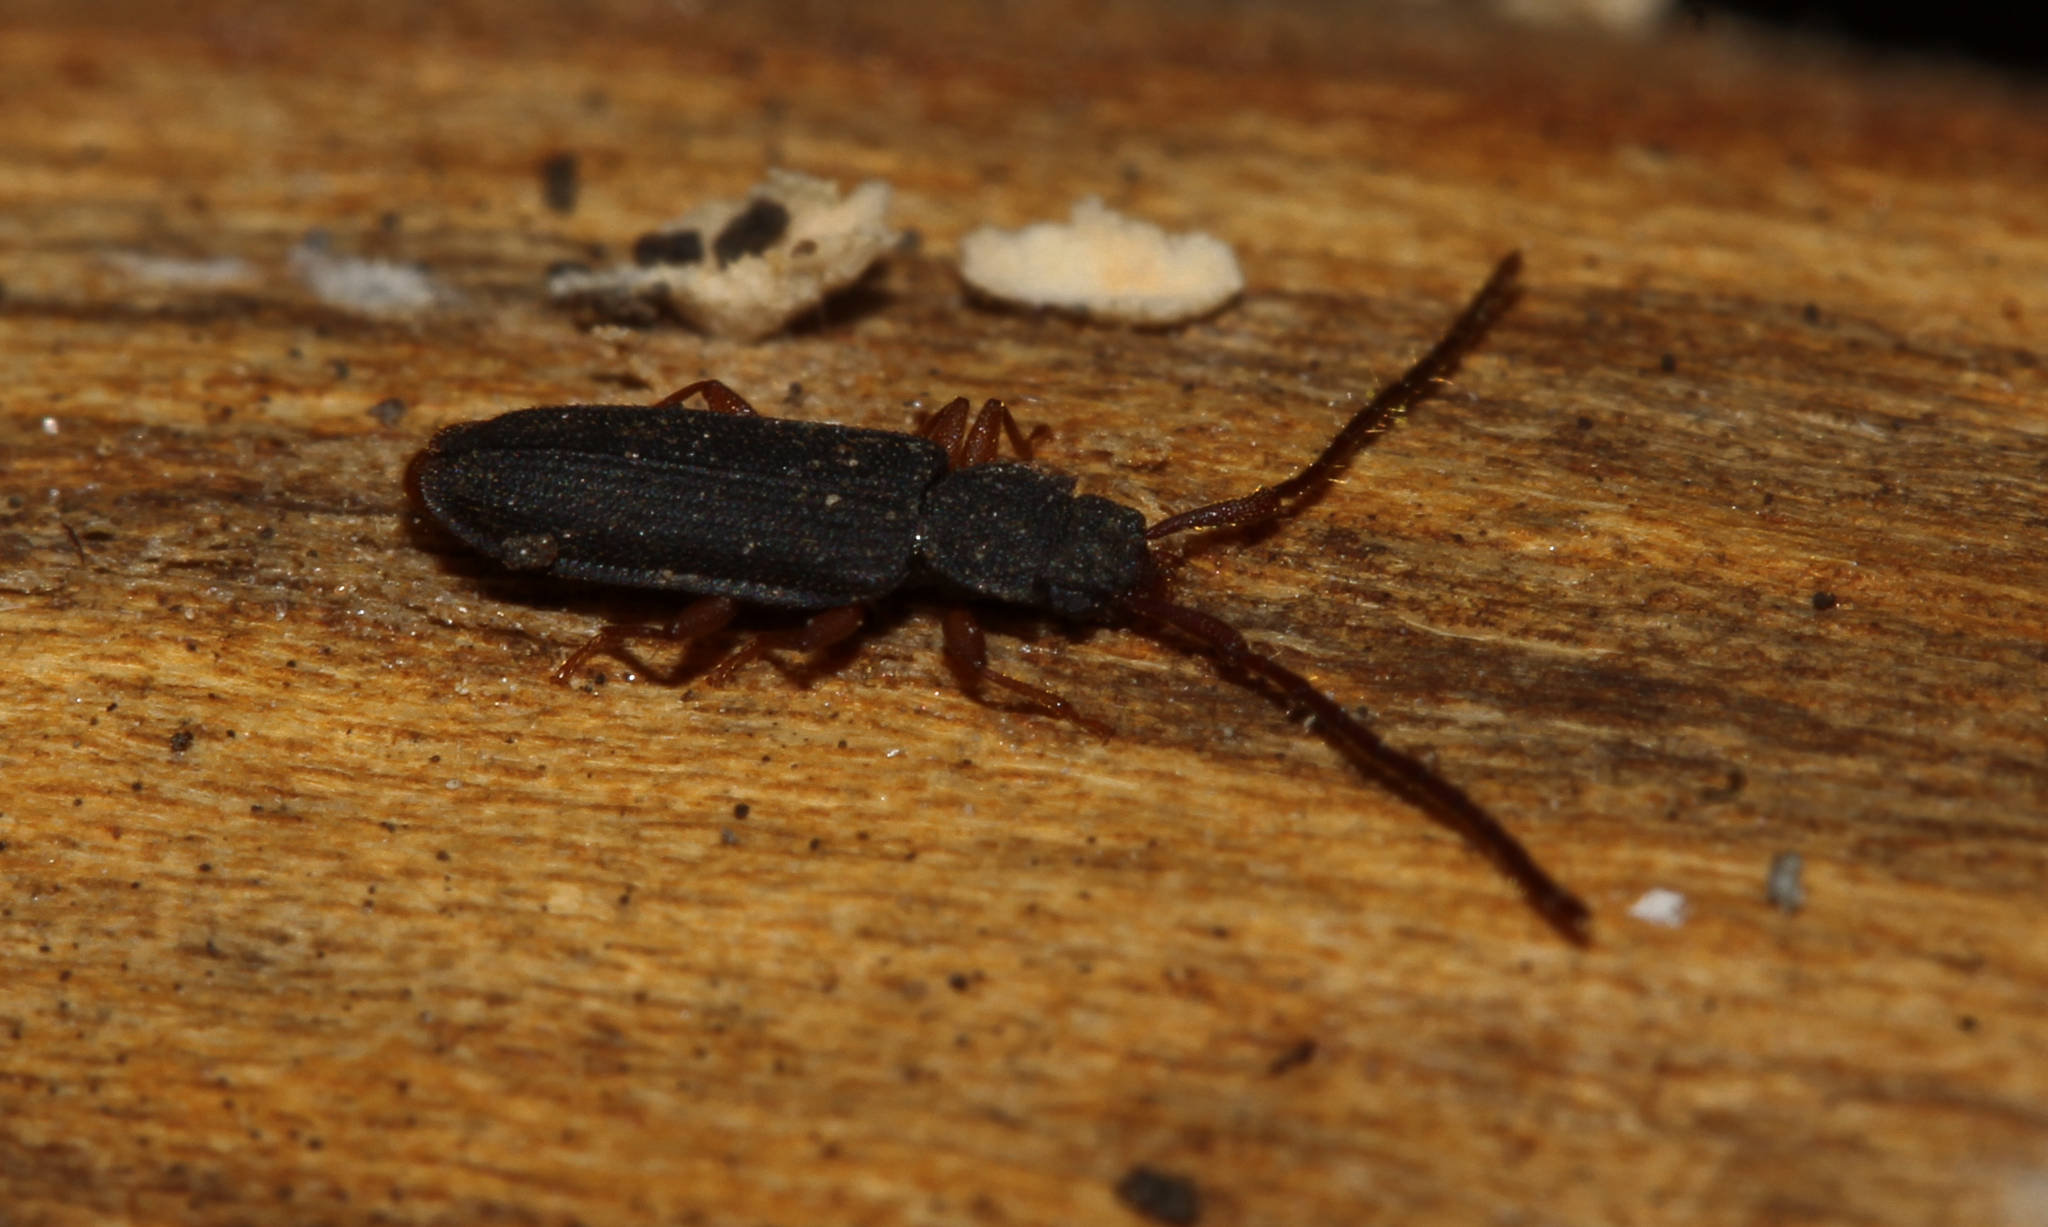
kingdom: Animalia
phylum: Arthropoda
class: Insecta
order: Coleoptera
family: Silvanidae
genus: Uleiota
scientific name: Uleiota planatus
